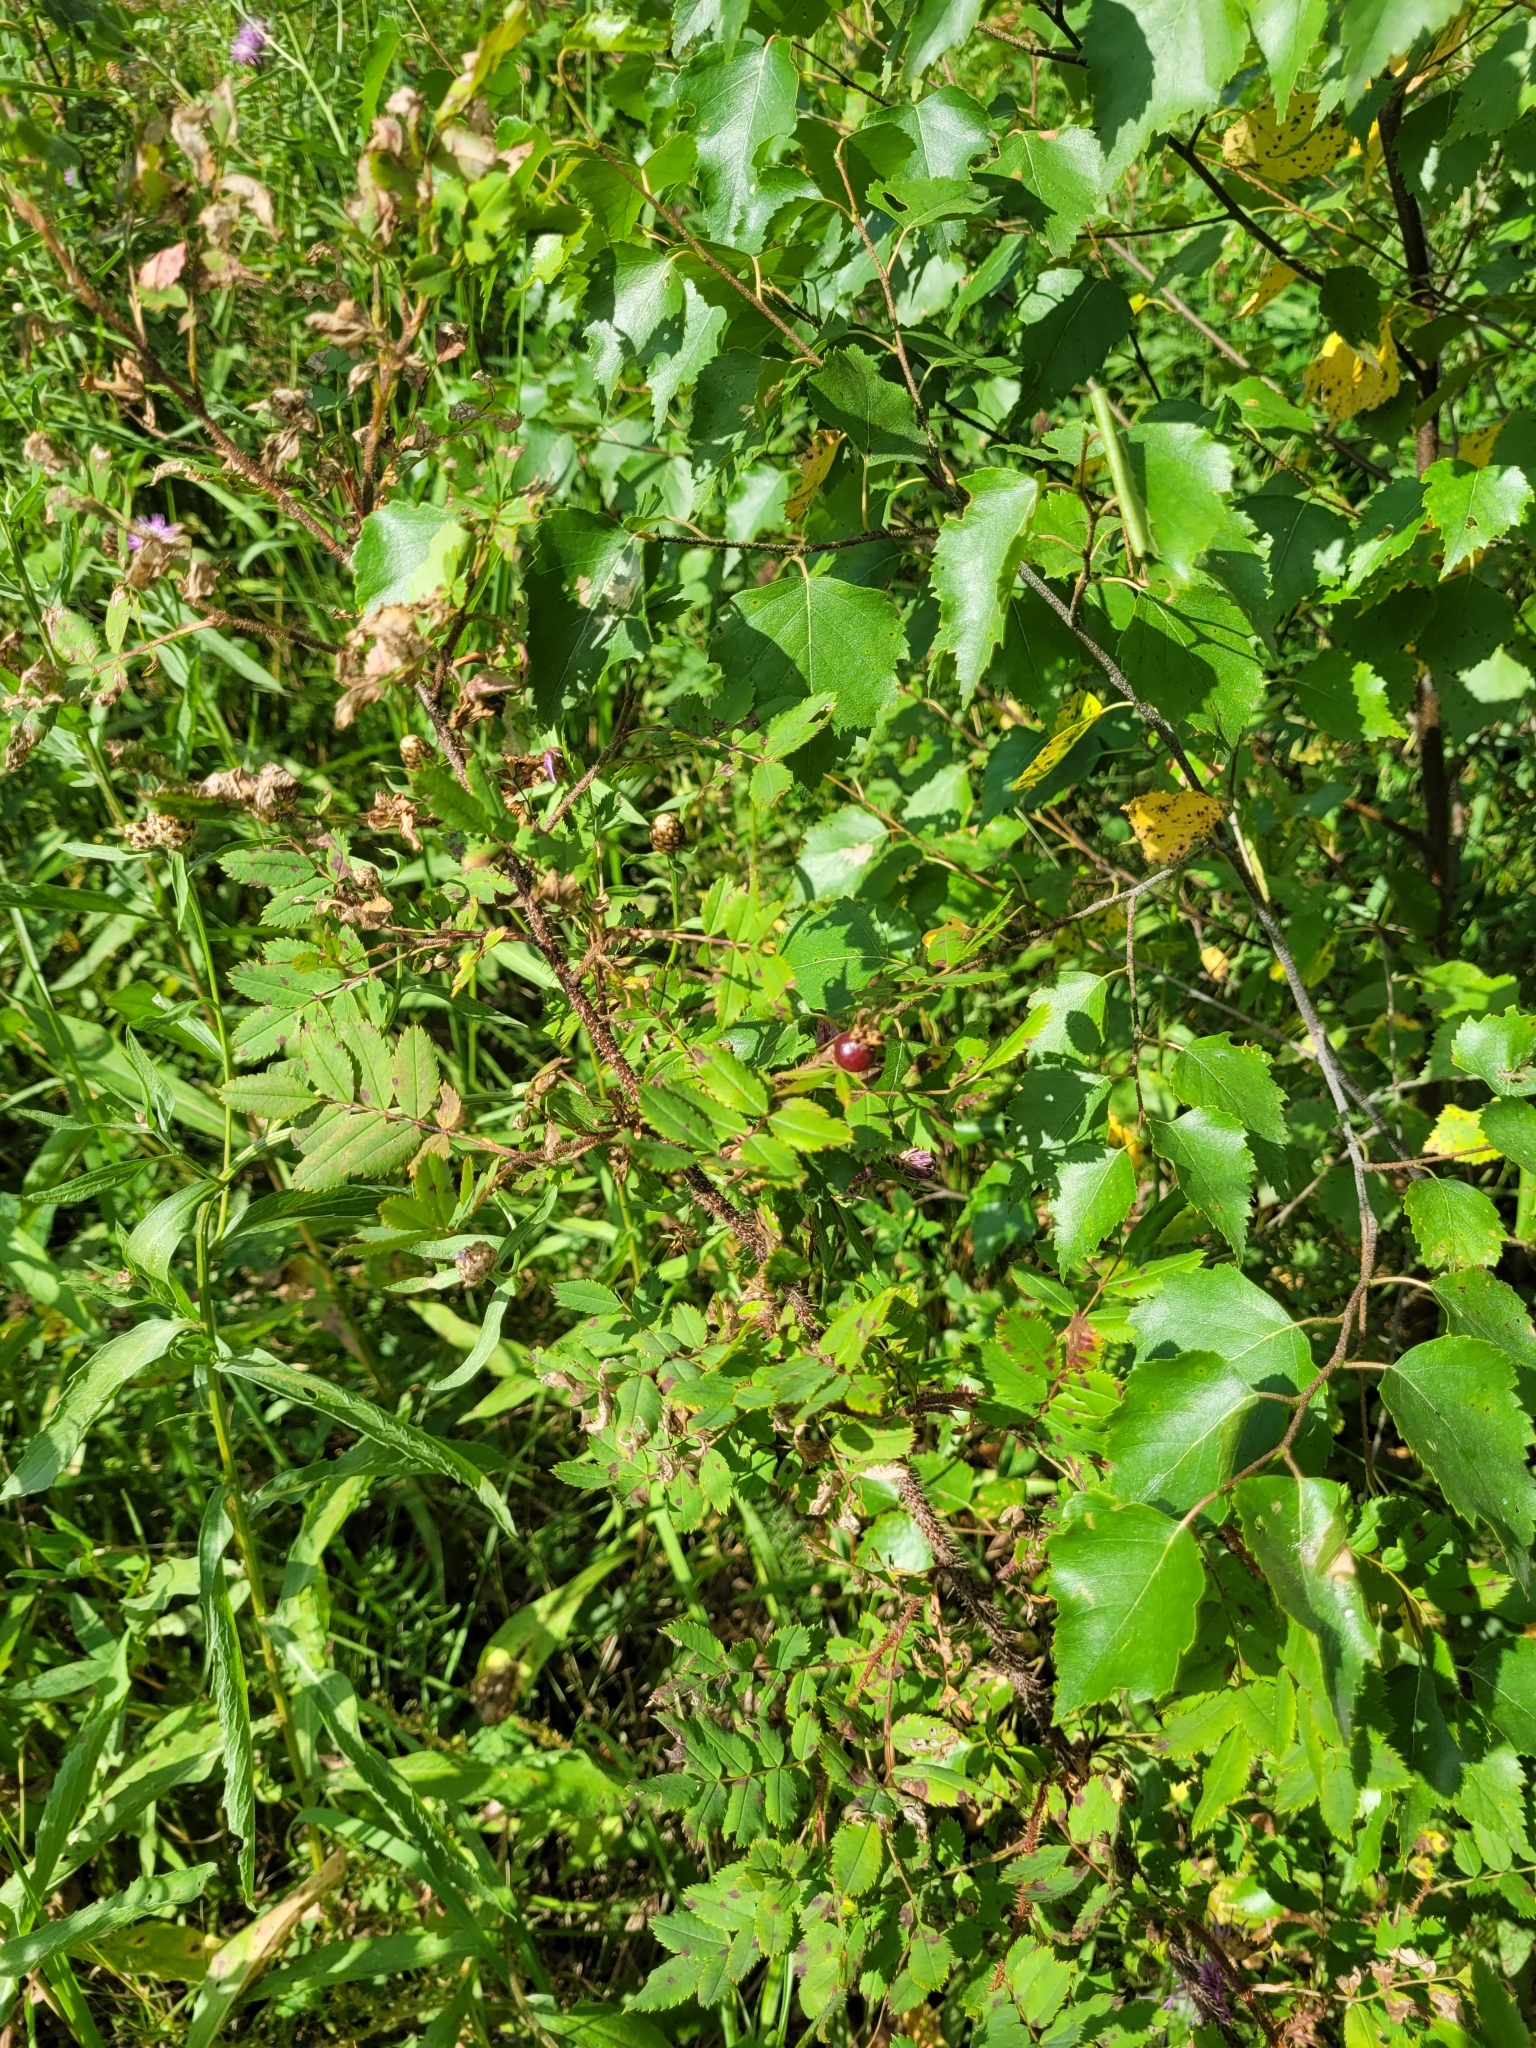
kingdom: Plantae
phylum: Tracheophyta
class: Magnoliopsida
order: Rosales
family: Rosaceae
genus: Rosa
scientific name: Rosa spinosissima
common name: Burnet rose
